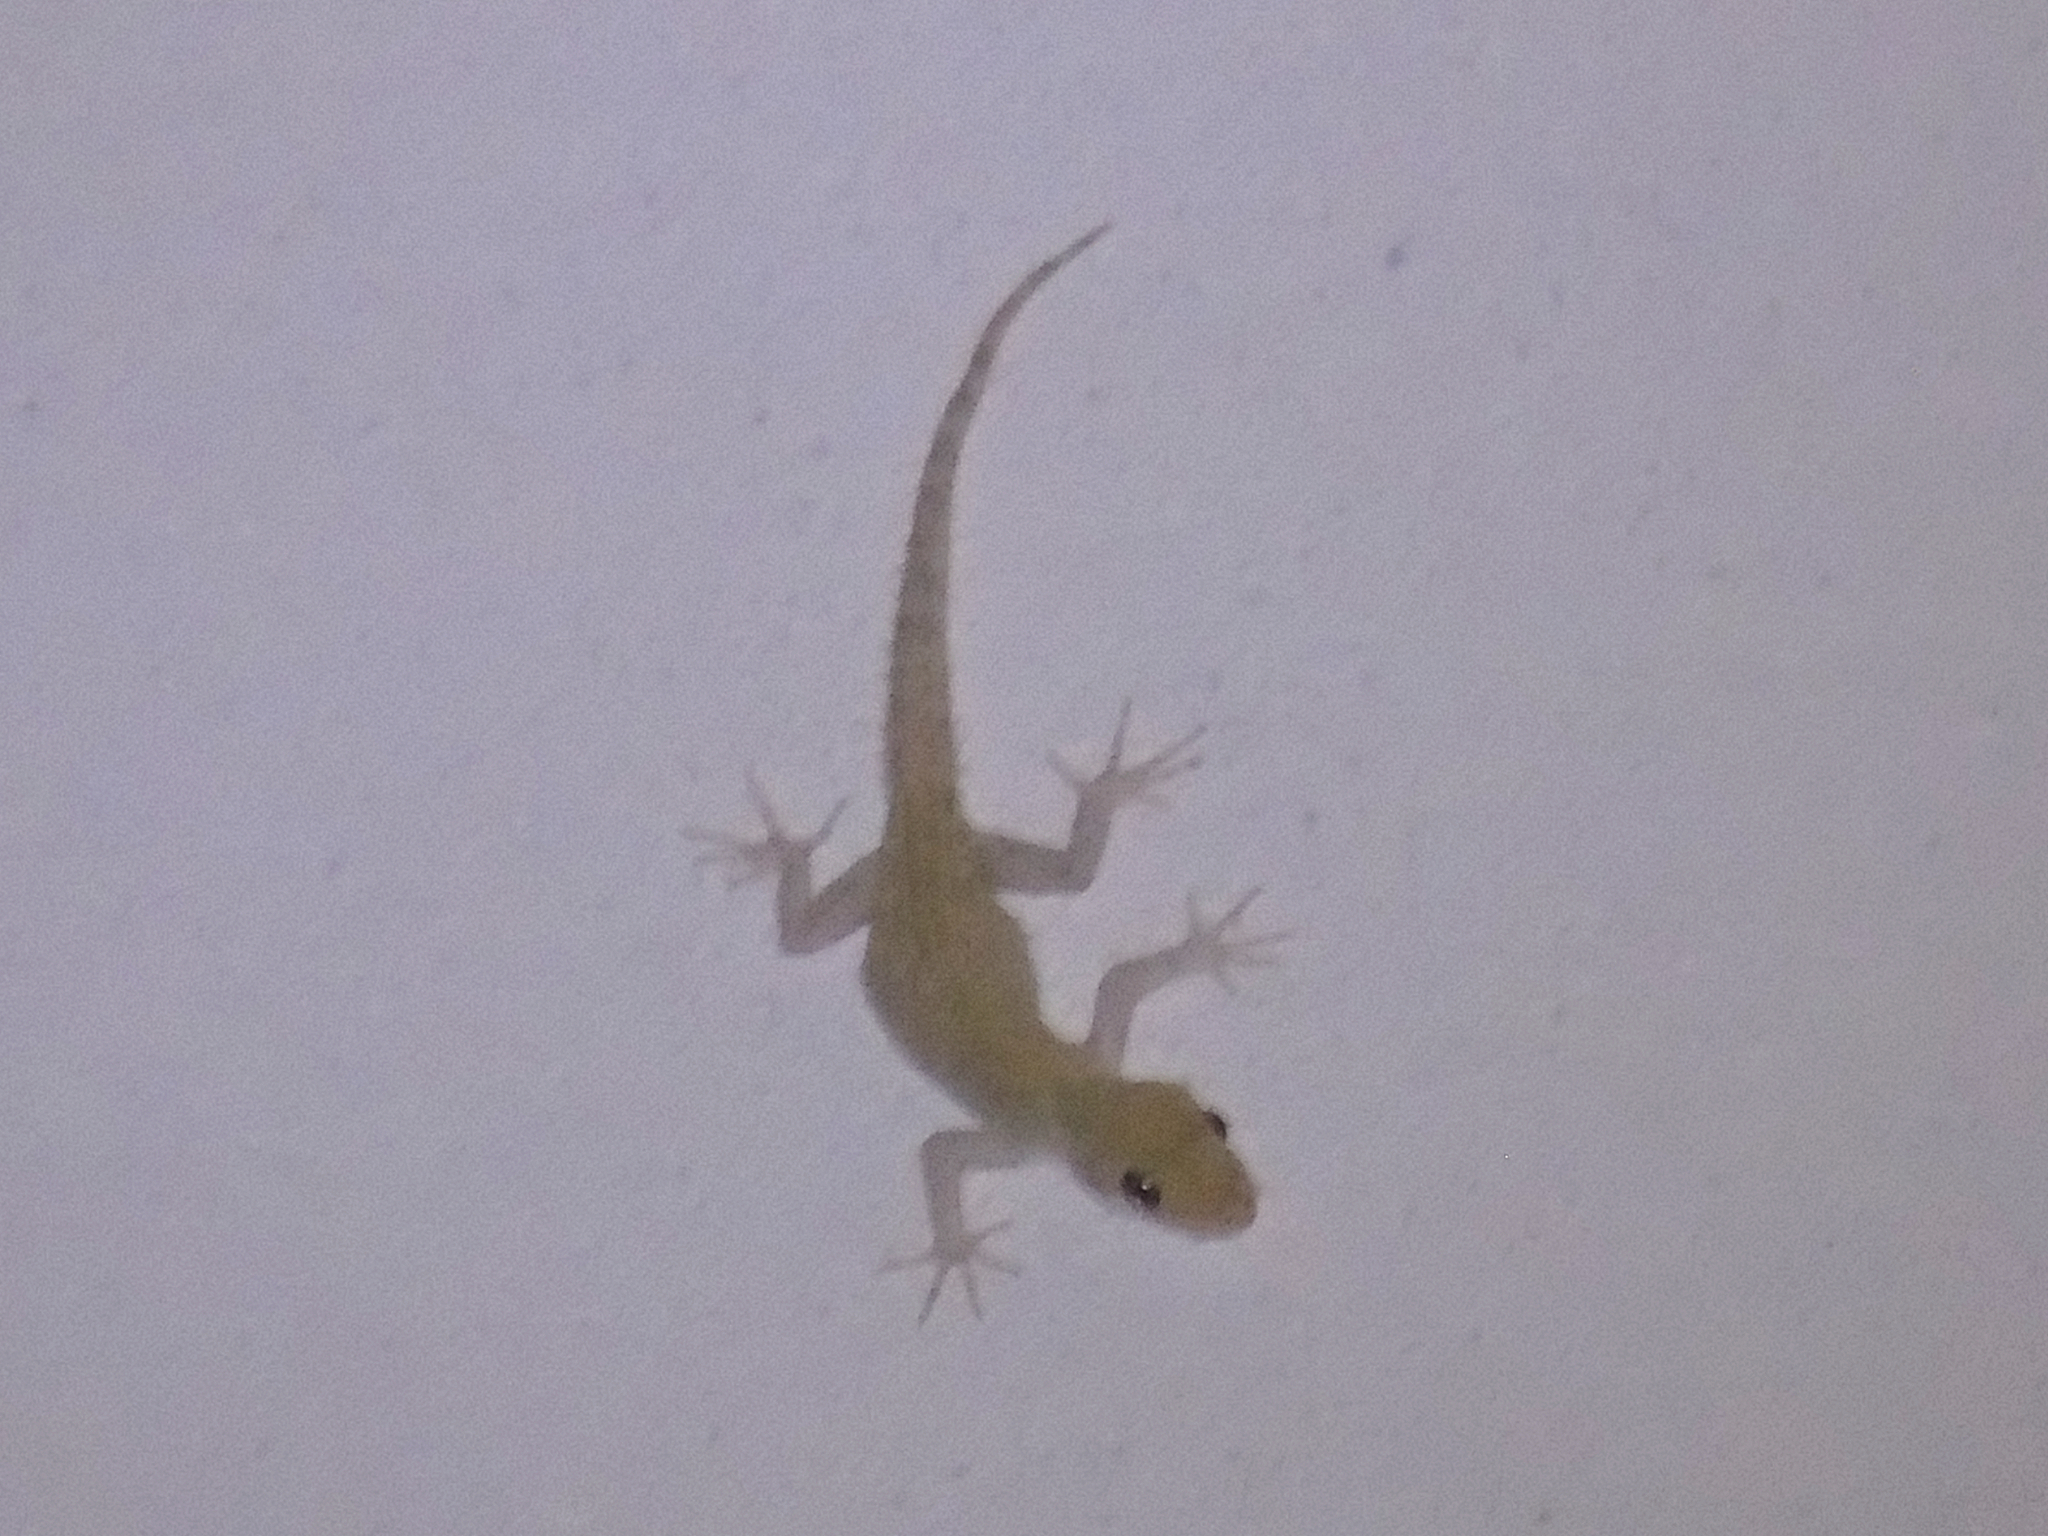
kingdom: Animalia
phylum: Chordata
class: Squamata
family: Gekkonidae
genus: Mediodactylus
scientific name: Mediodactylus kotschyi
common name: Kotschy's gecko
